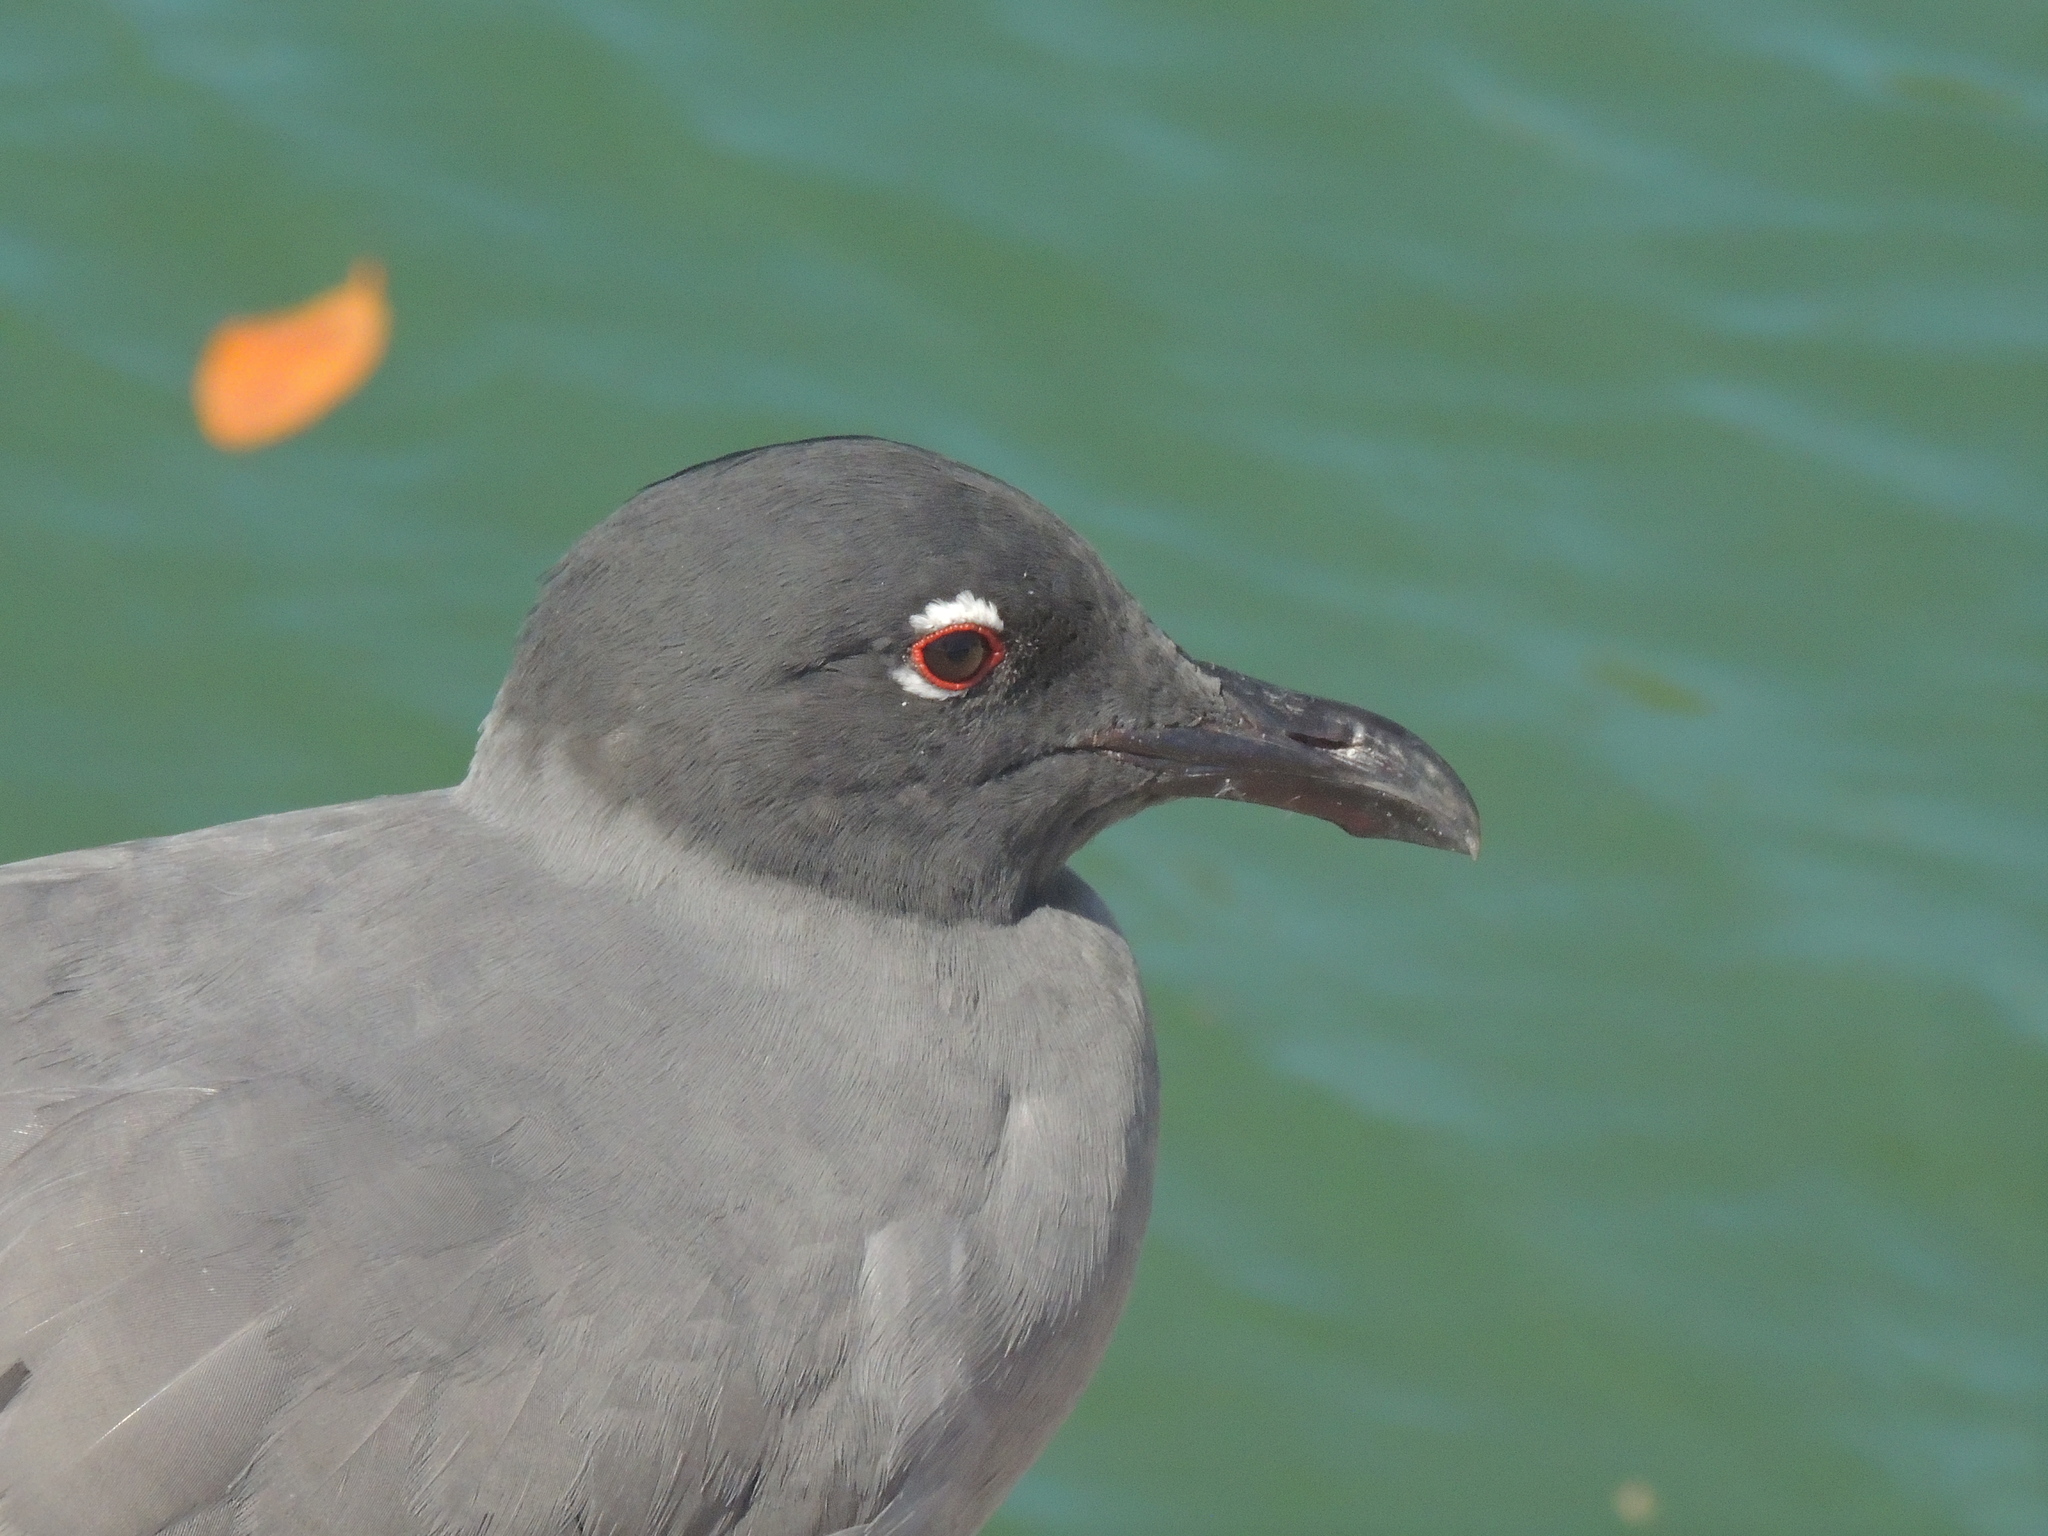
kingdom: Animalia
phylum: Chordata
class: Aves
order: Charadriiformes
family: Laridae
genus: Leucophaeus
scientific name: Leucophaeus fuliginosus
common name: Lava gull
